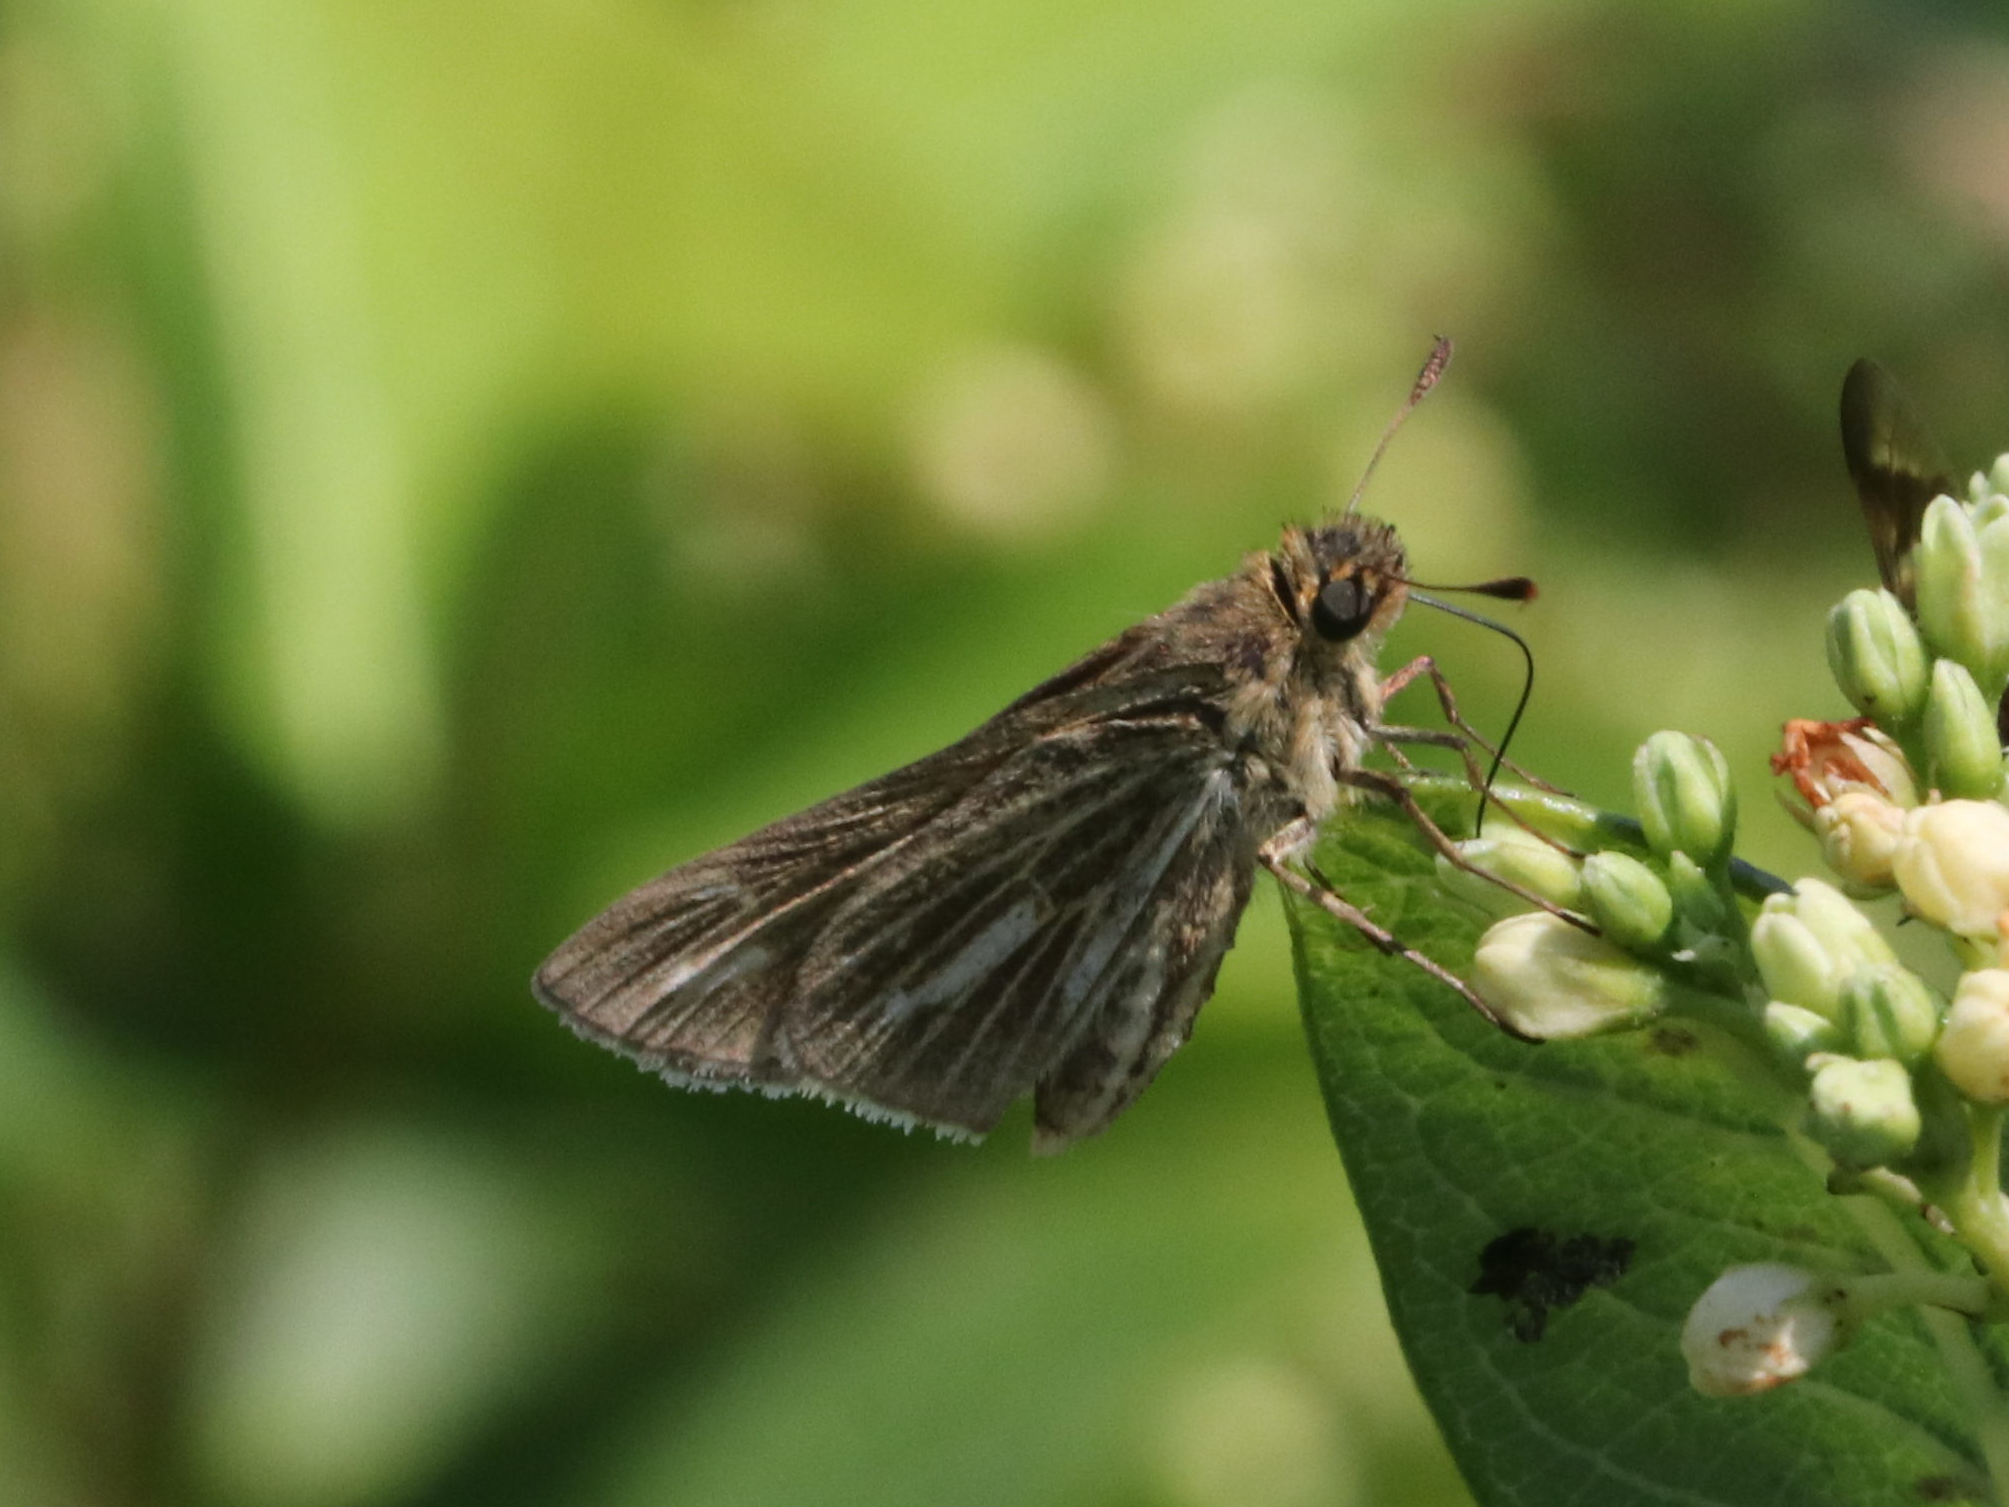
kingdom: Animalia
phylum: Arthropoda
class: Insecta
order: Lepidoptera
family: Hesperiidae
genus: Panoquina
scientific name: Panoquina panoquin
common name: Salt marsh skipper
